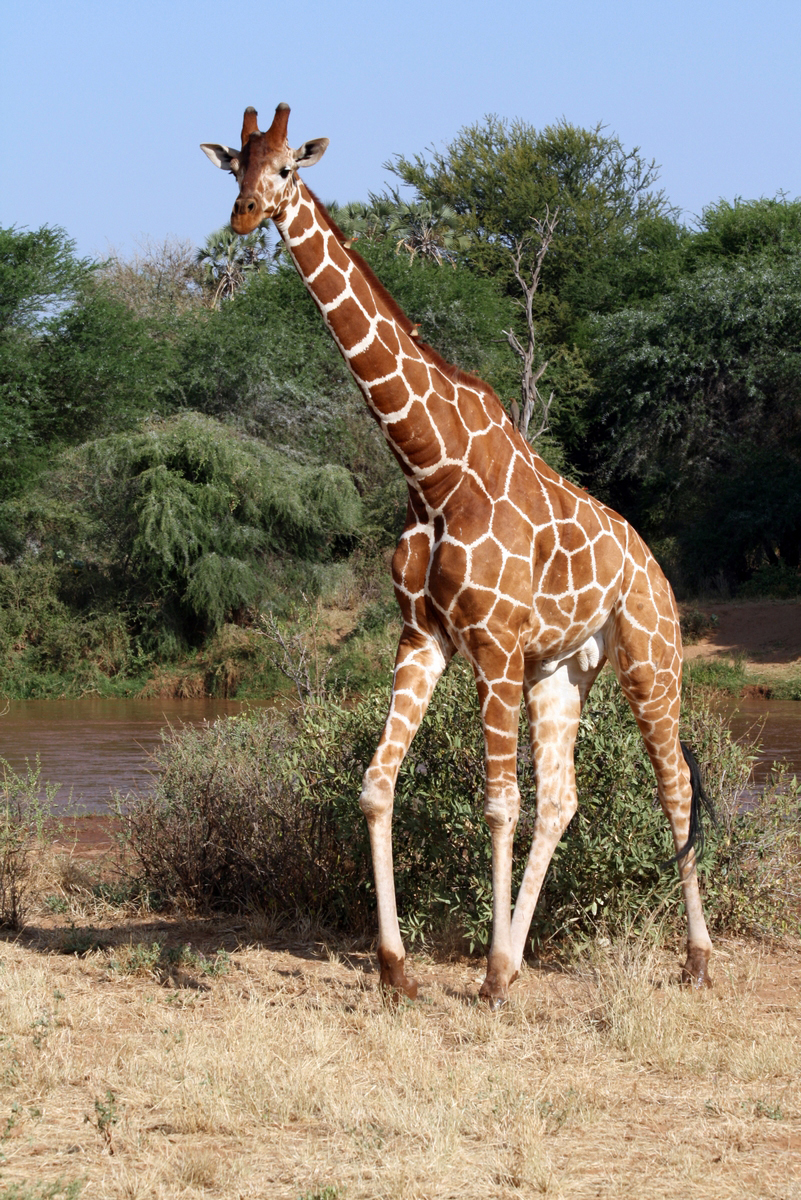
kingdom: Animalia
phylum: Chordata
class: Mammalia
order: Artiodactyla
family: Giraffidae
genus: Giraffa
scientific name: Giraffa reticulata
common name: Reticulated giraffe
